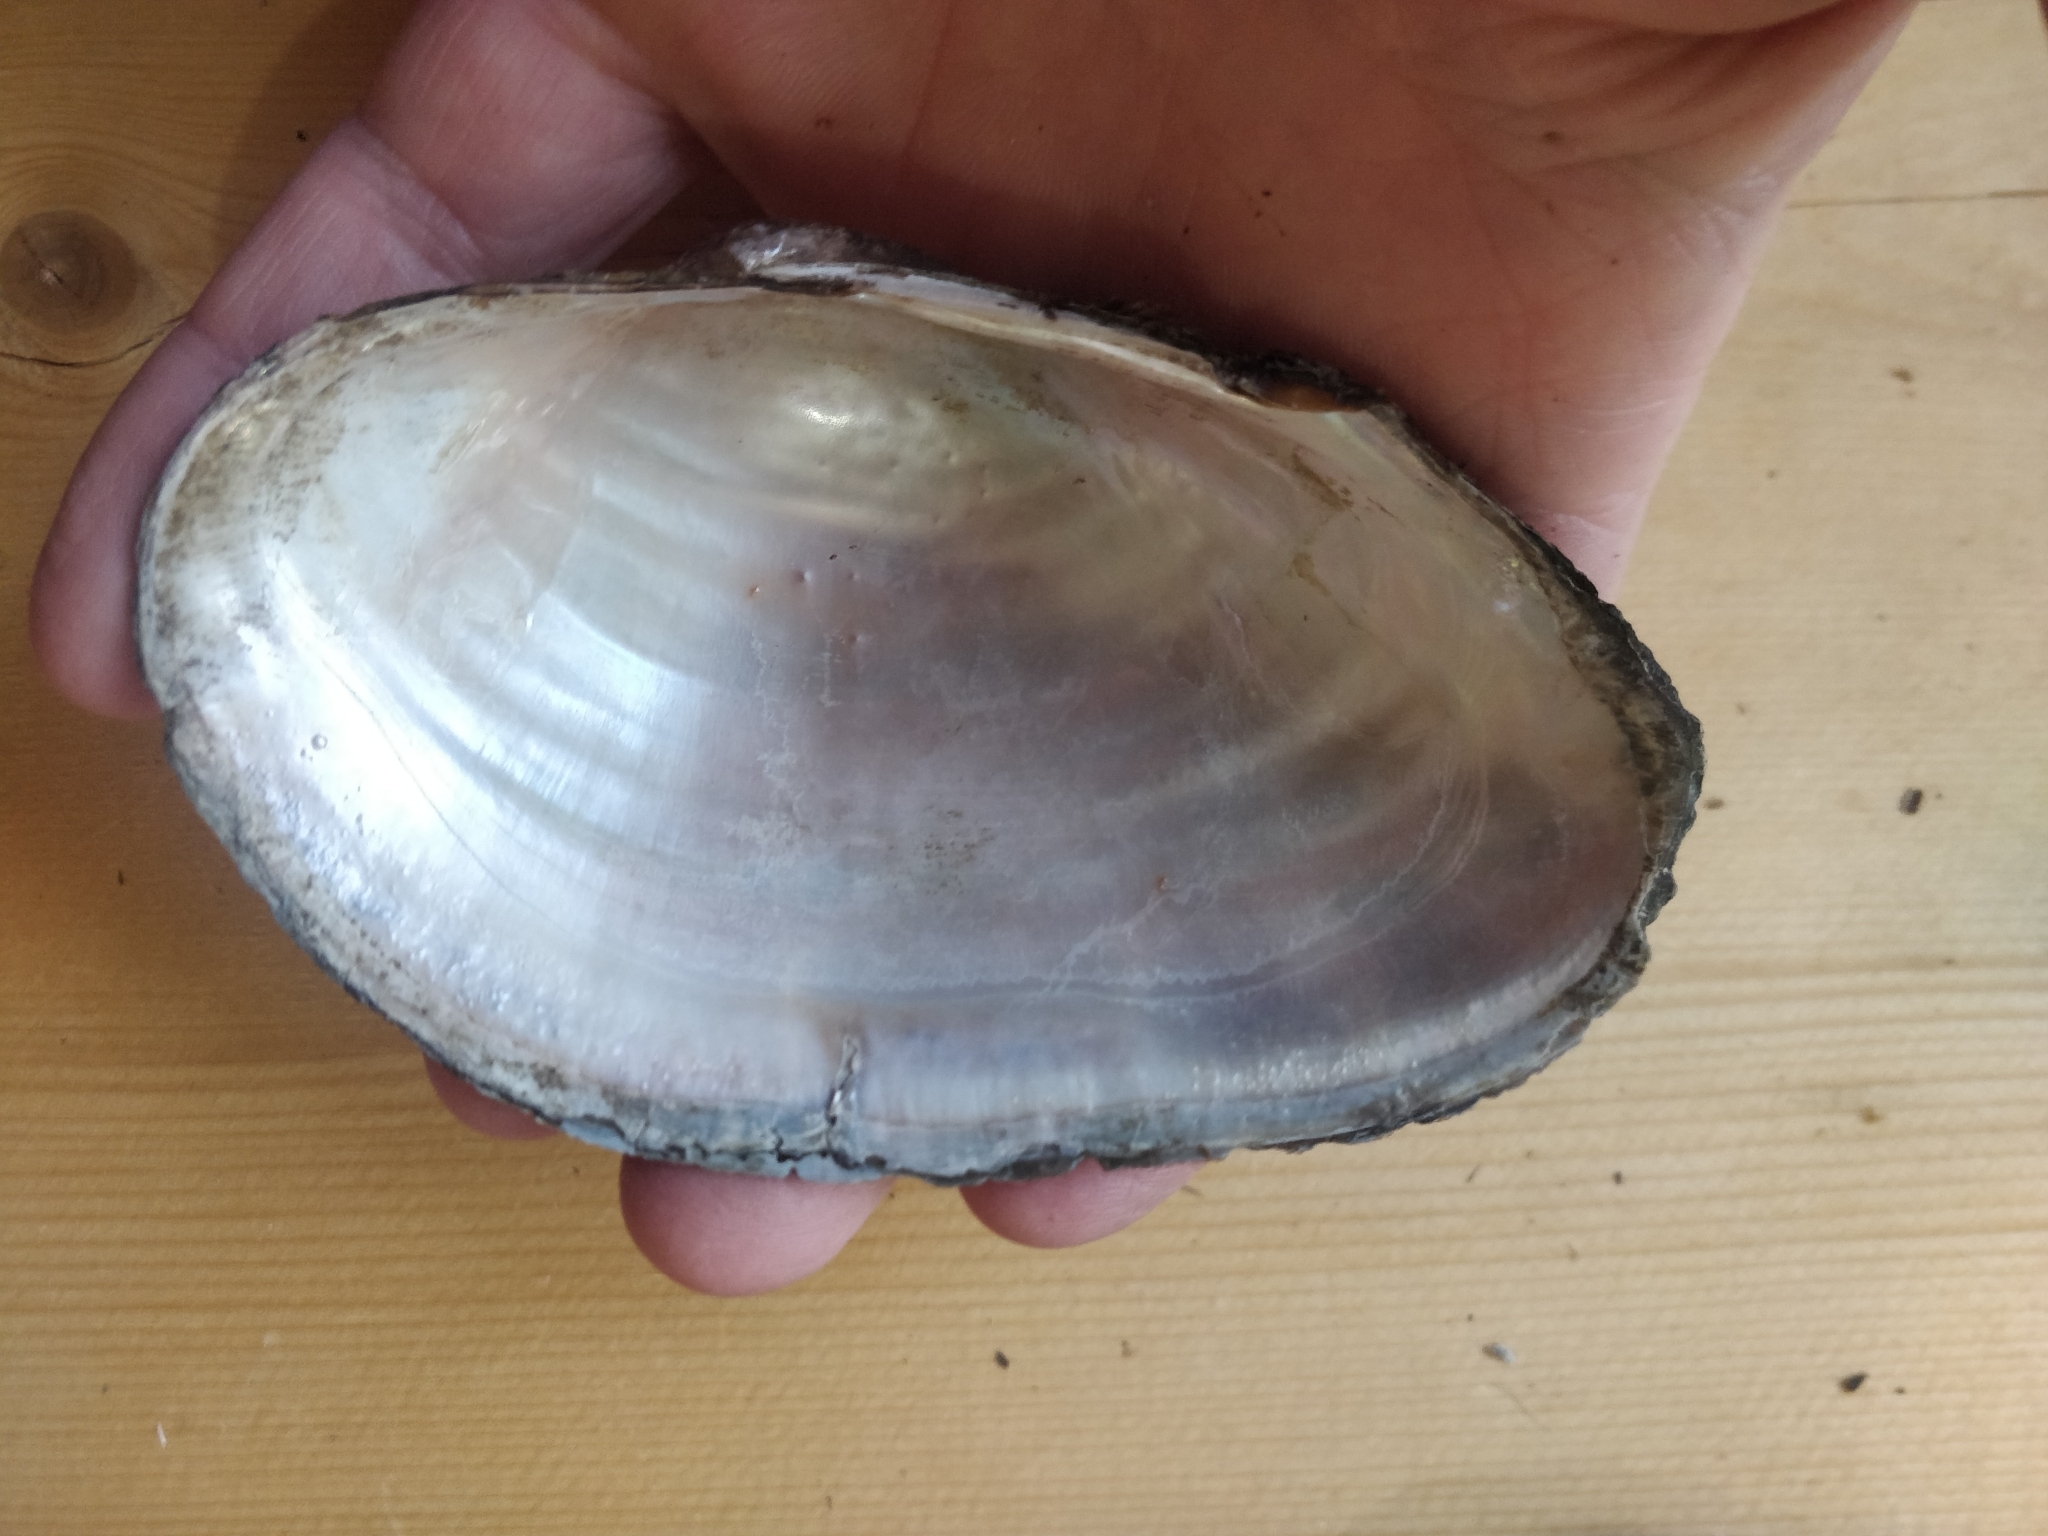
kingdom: Animalia
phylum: Mollusca
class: Bivalvia
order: Unionida
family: Unionidae
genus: Pyganodon
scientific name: Pyganodon grandis
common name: Giant floater
